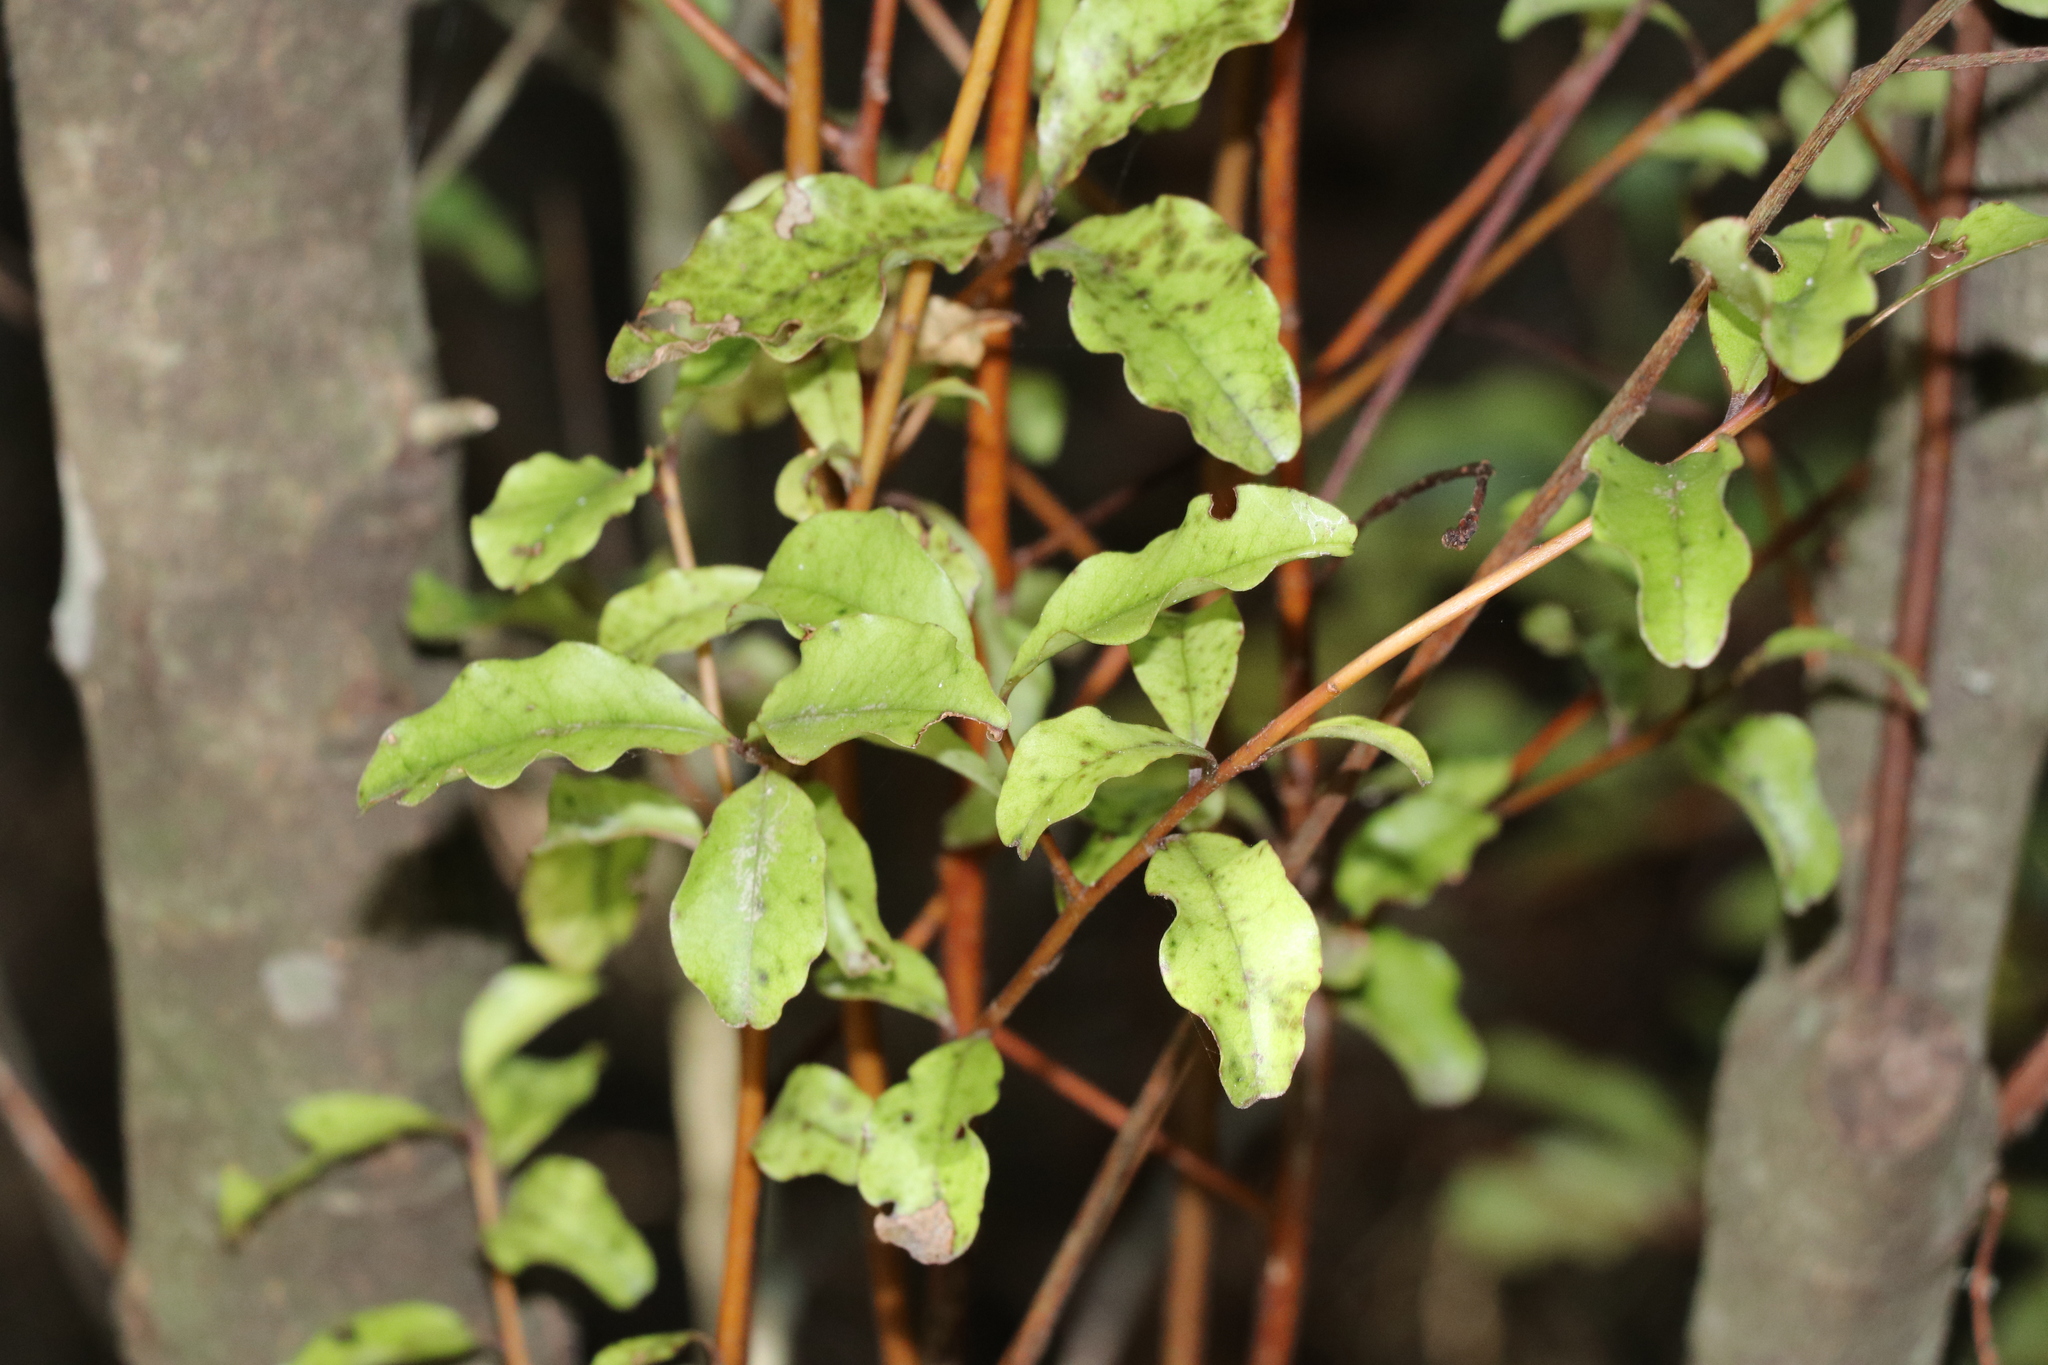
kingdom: Plantae
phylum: Tracheophyta
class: Magnoliopsida
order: Ericales
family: Primulaceae
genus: Myrsine
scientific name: Myrsine australis
